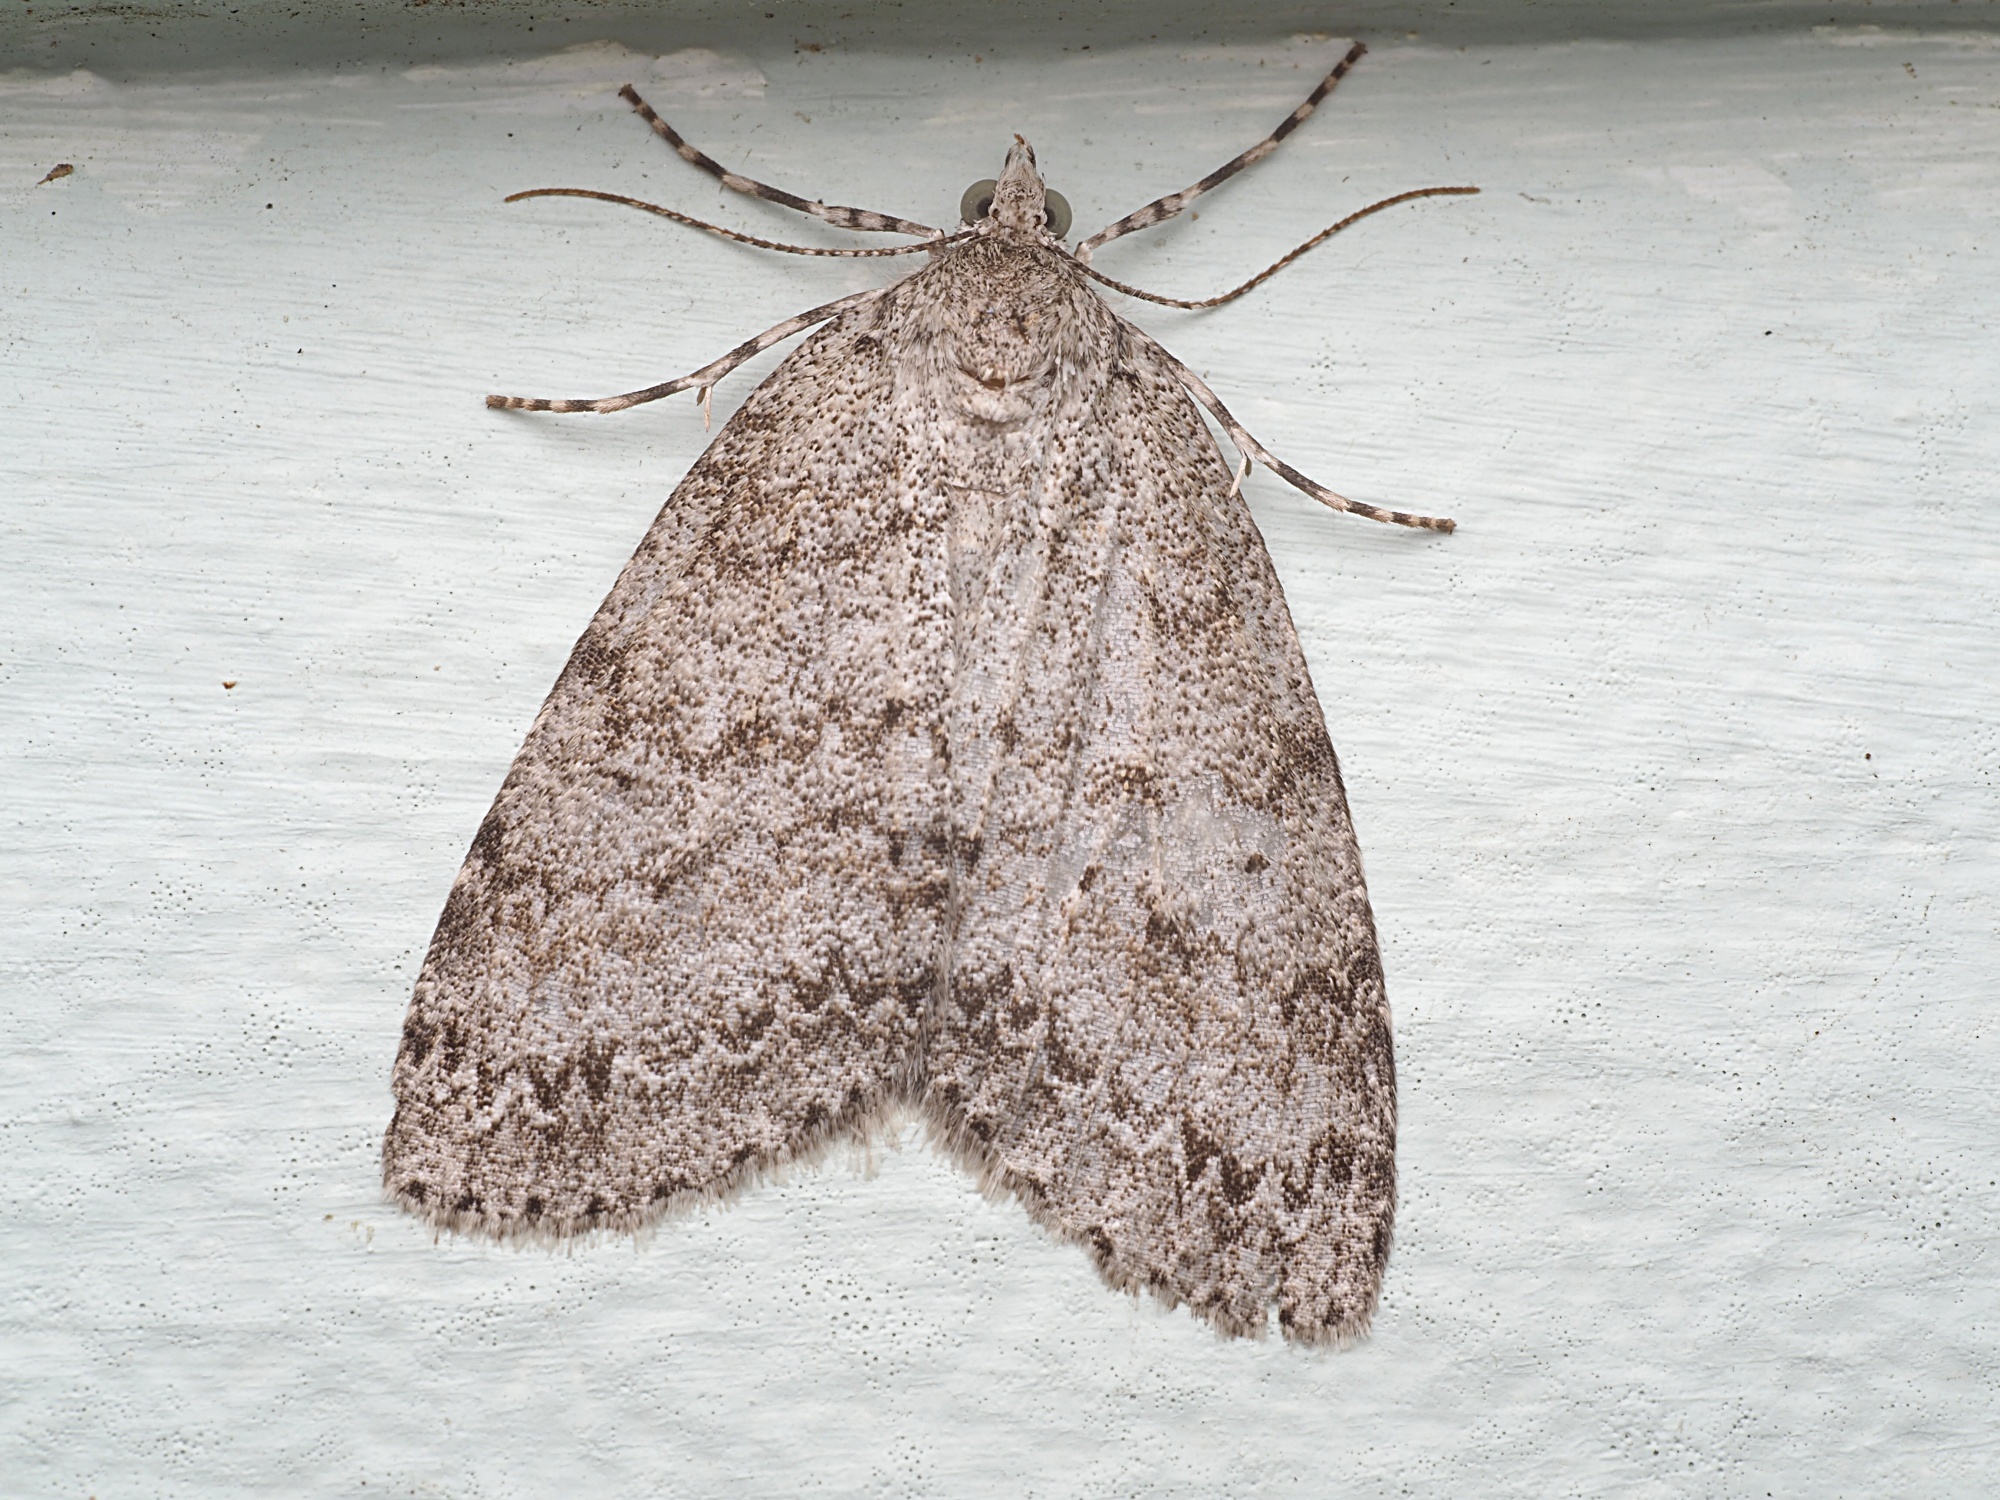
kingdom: Animalia
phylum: Arthropoda
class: Insecta
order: Lepidoptera
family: Geometridae
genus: Pseudocoremia
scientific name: Pseudocoremia fenerata
